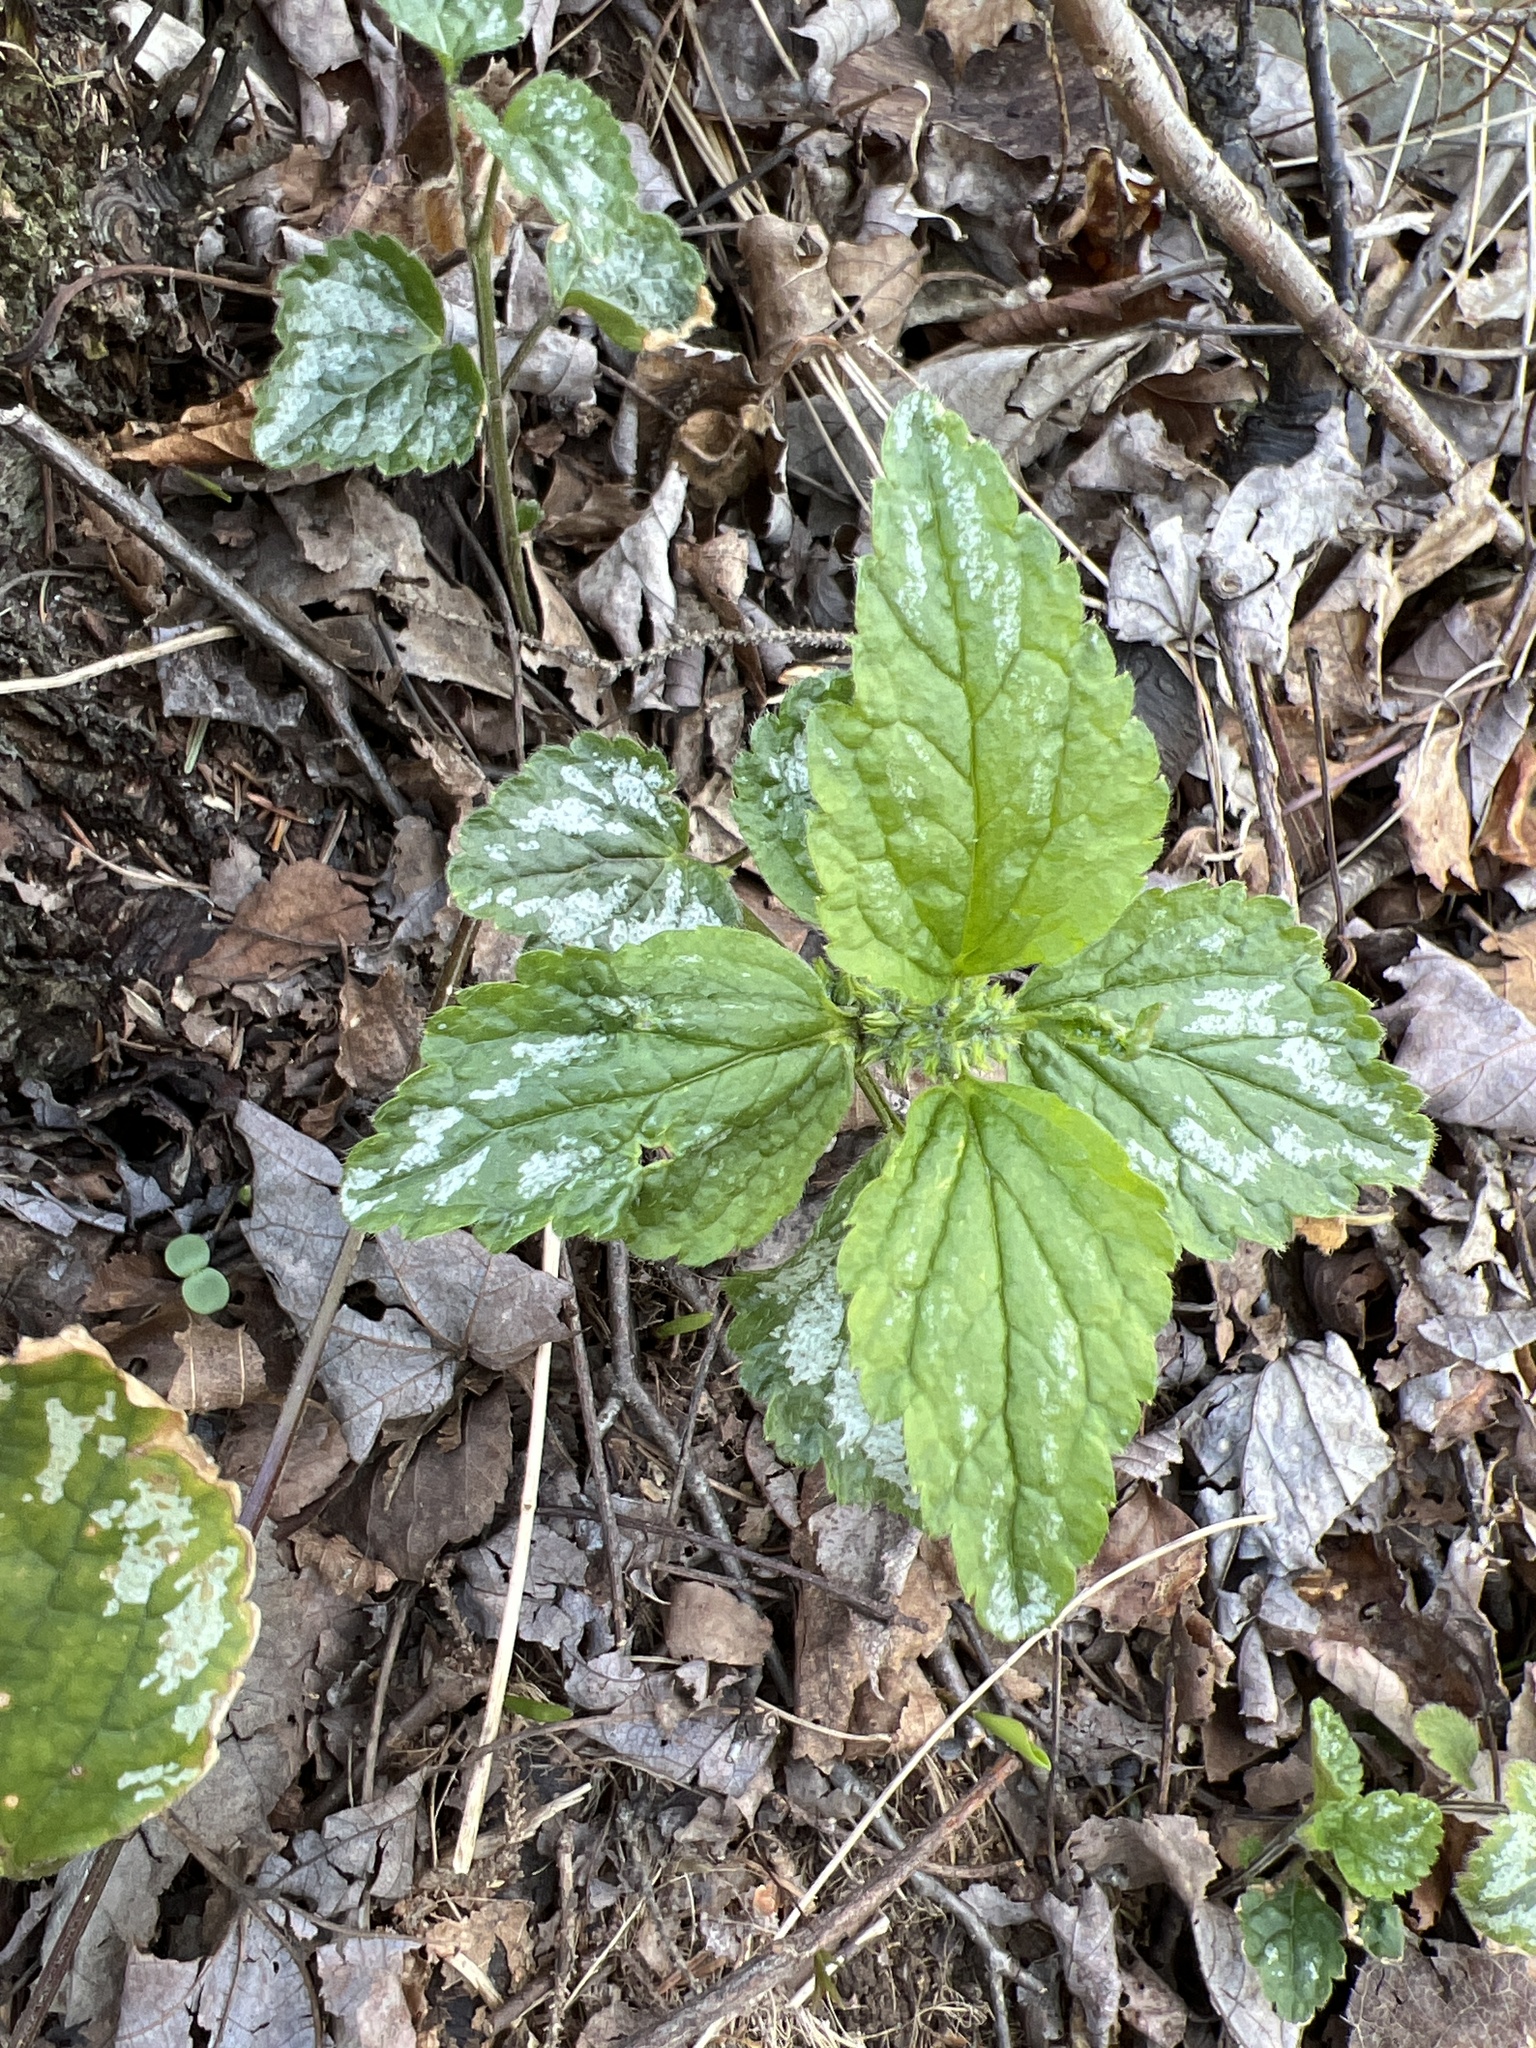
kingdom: Plantae
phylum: Tracheophyta
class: Magnoliopsida
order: Lamiales
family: Lamiaceae
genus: Lamium
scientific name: Lamium galeobdolon
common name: Yellow archangel
